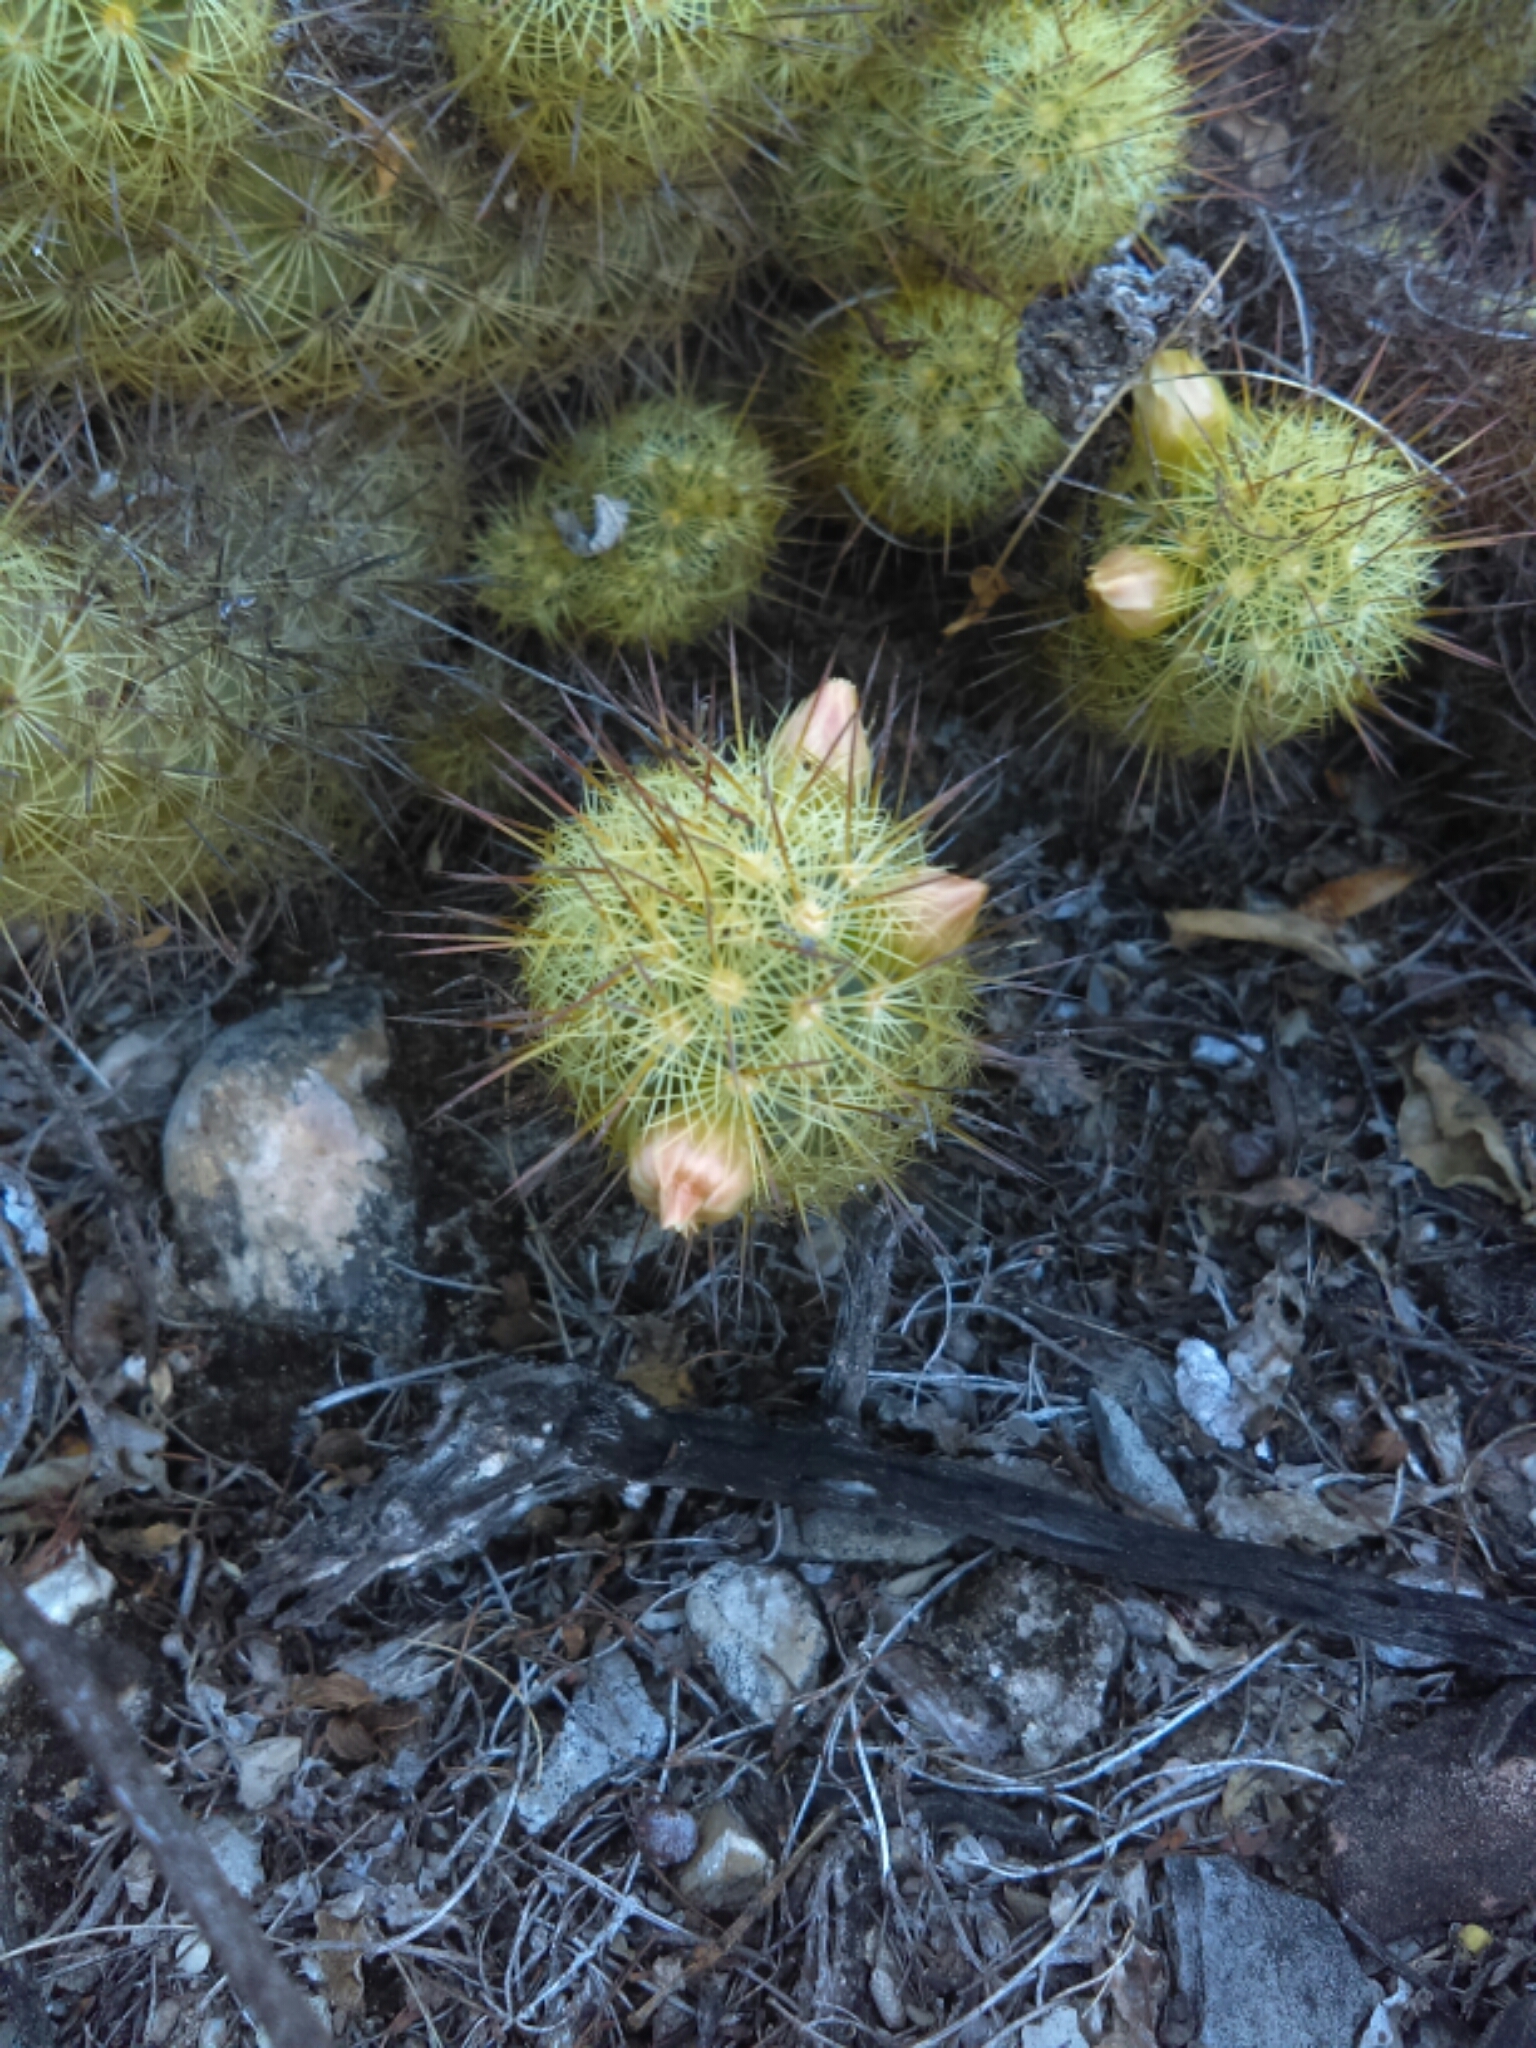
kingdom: Plantae
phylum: Tracheophyta
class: Magnoliopsida
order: Caryophyllales
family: Cactaceae
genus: Mammillaria
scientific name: Mammillaria elongata
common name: Golden star cactus
